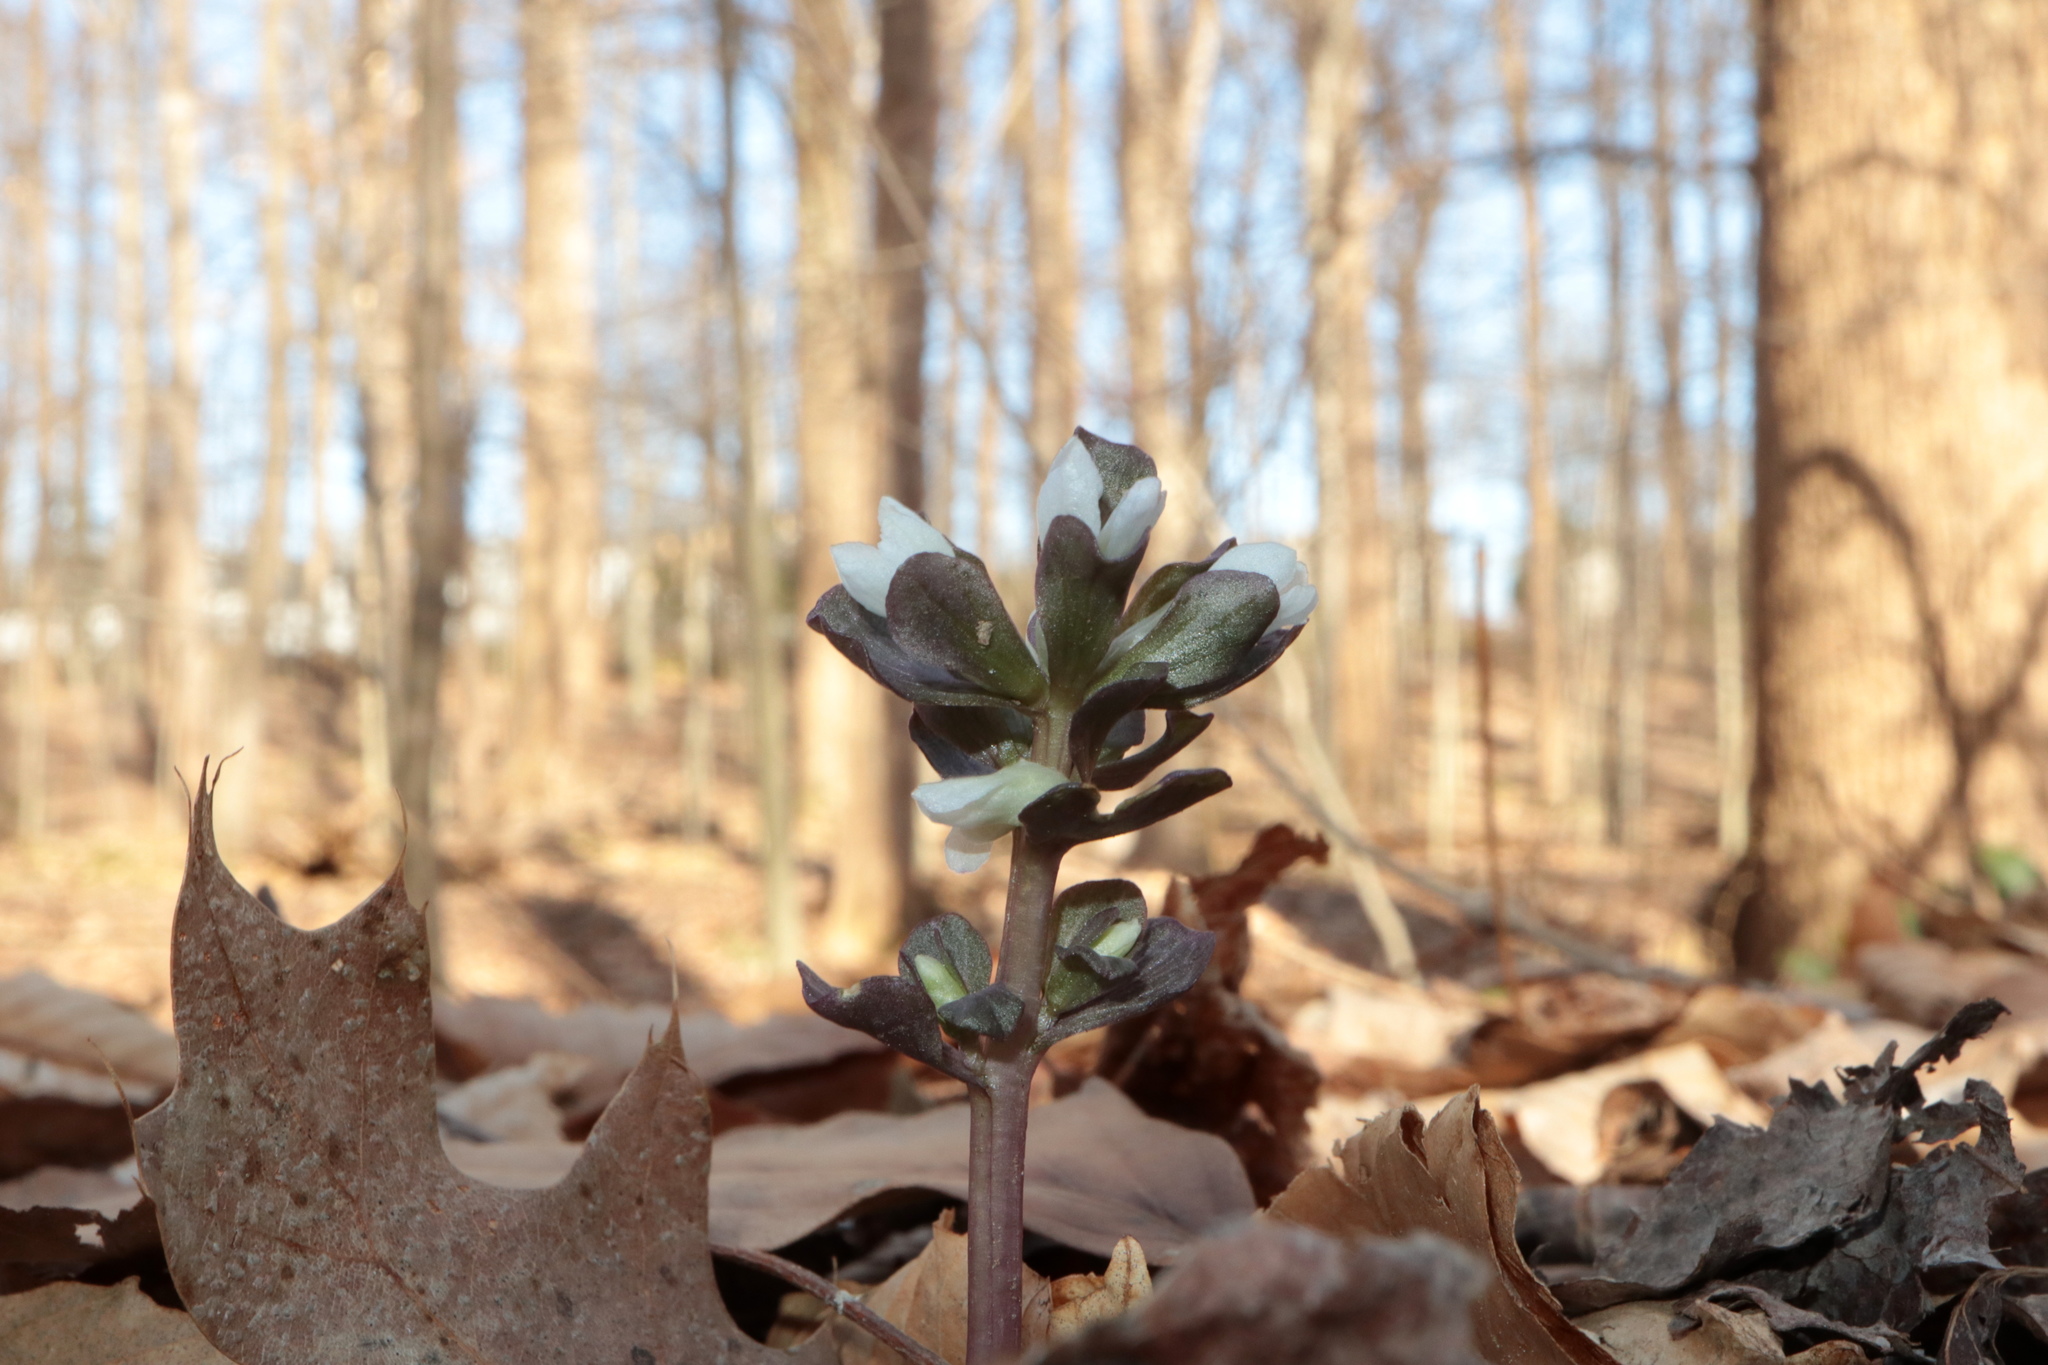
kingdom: Plantae
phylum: Tracheophyta
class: Magnoliopsida
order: Gentianales
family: Gentianaceae
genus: Obolaria
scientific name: Obolaria virginica
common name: Pennywort
